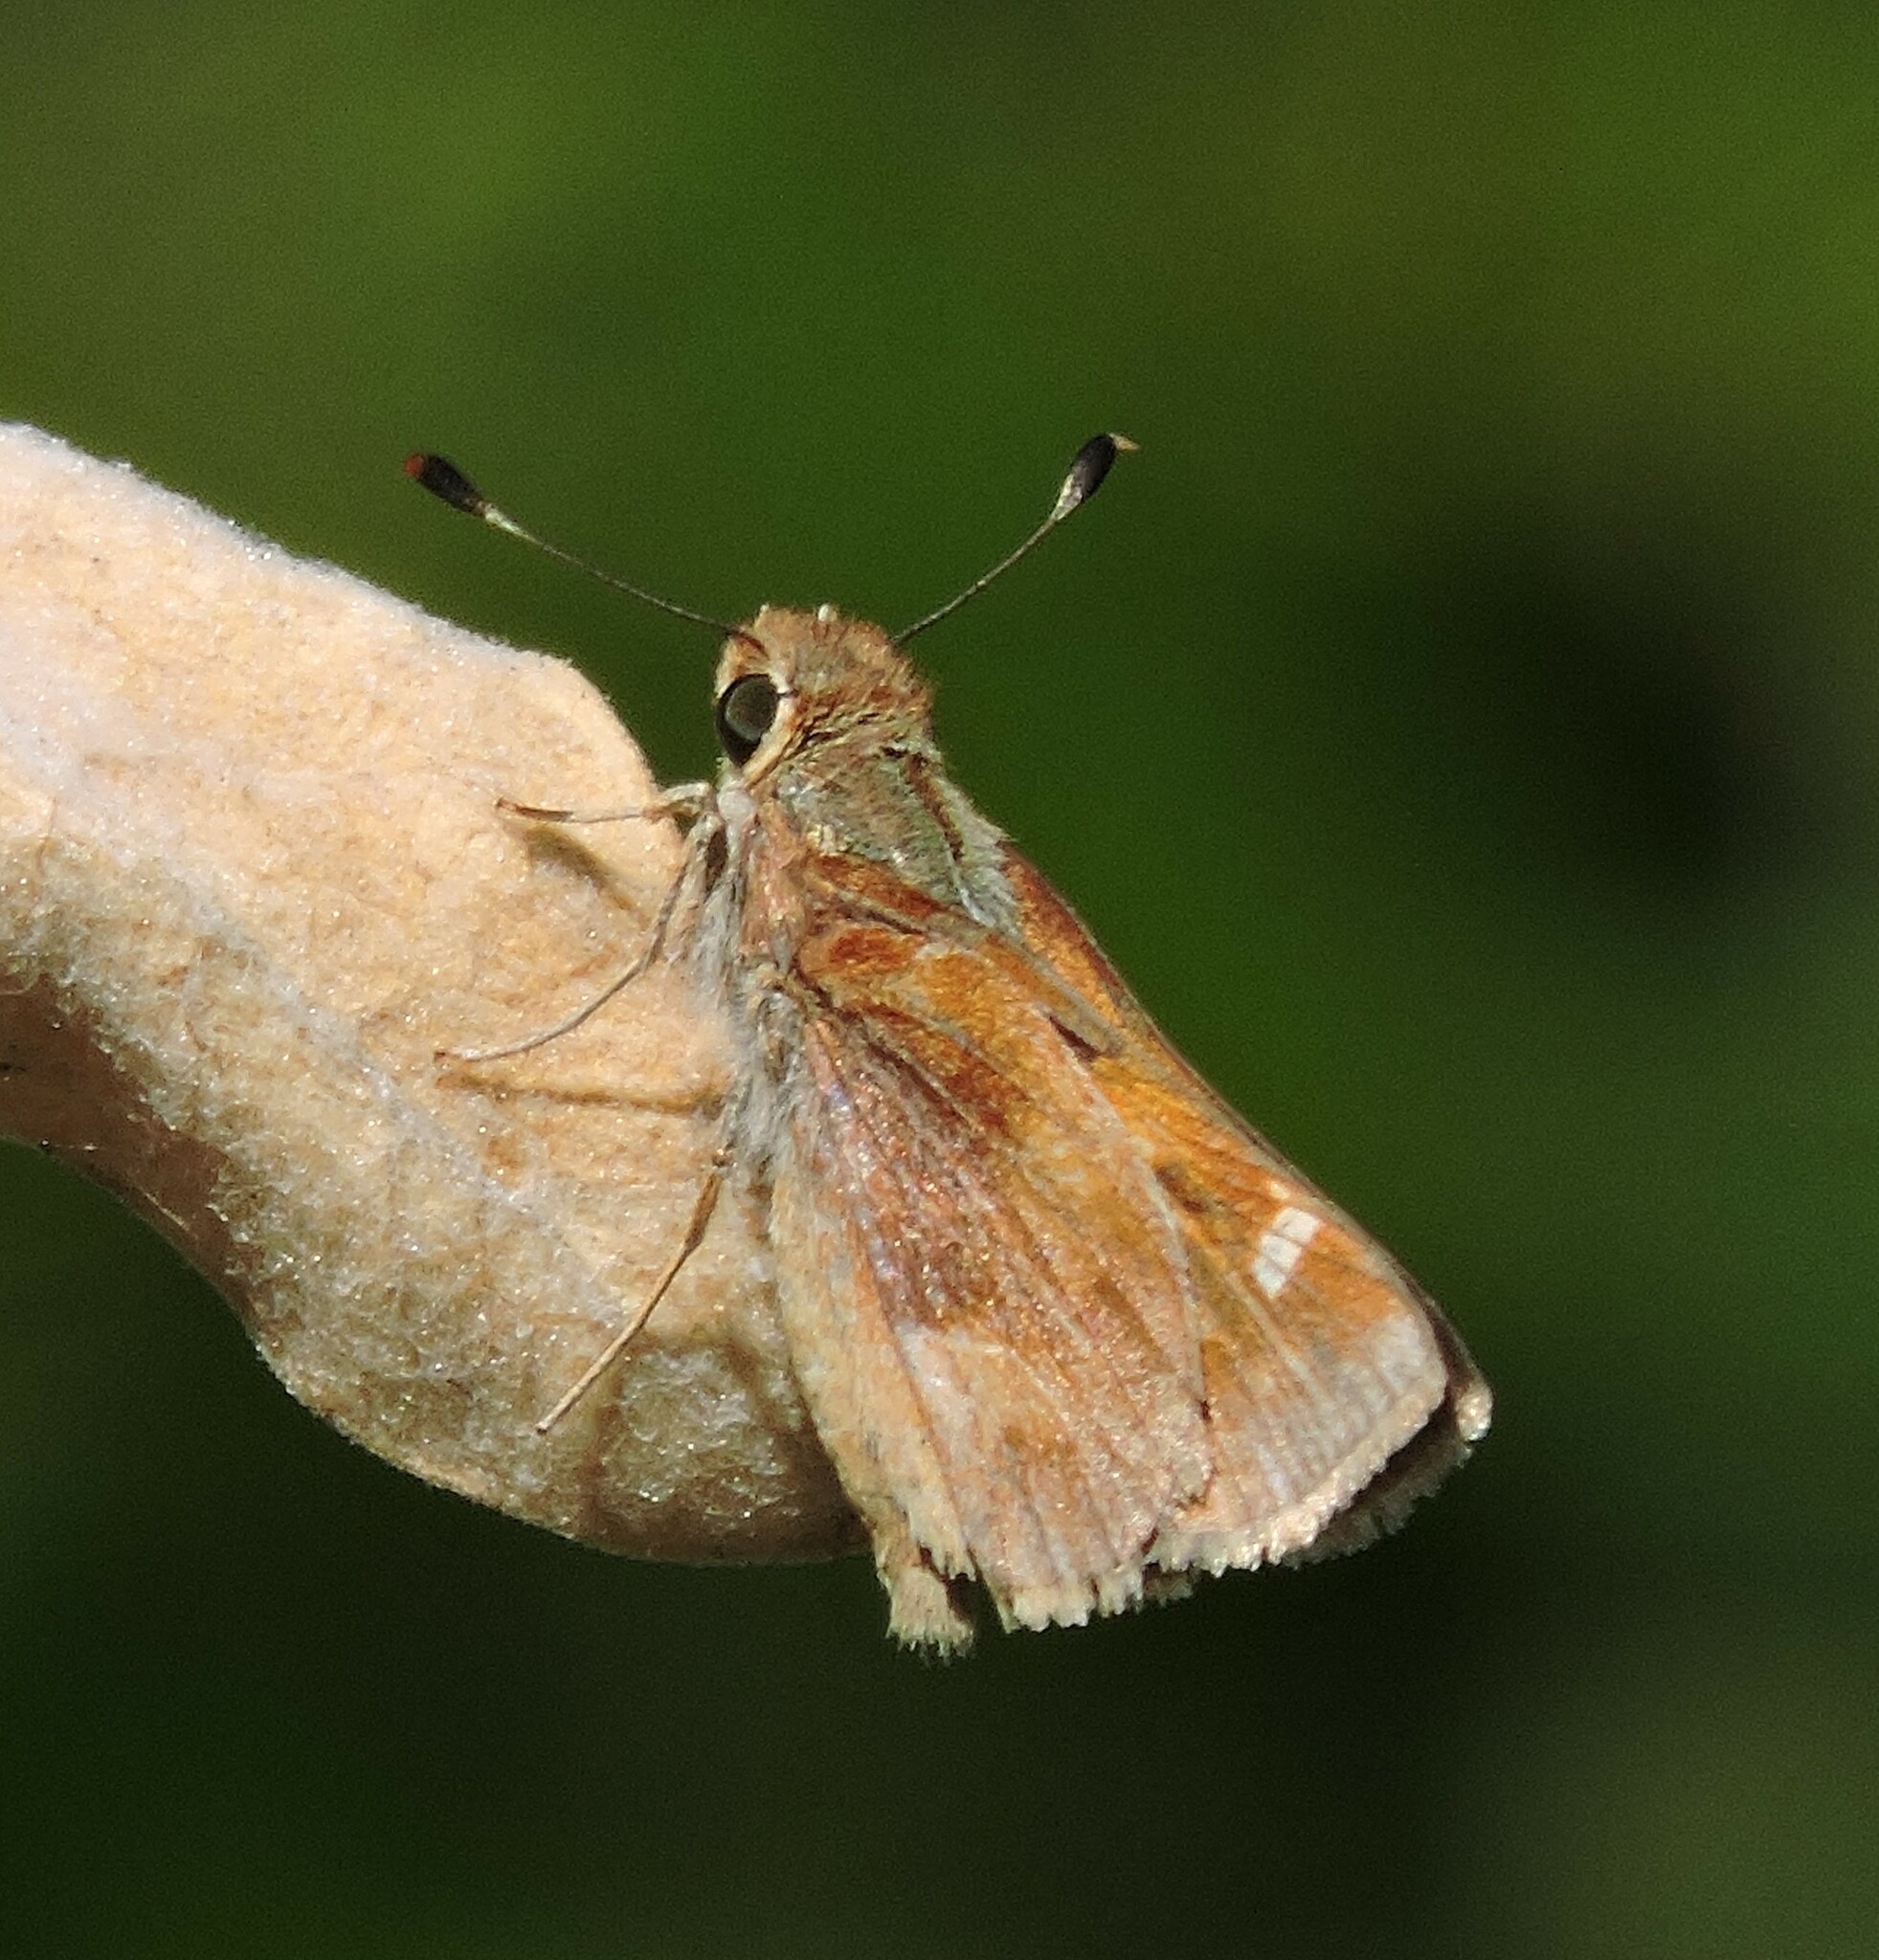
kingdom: Animalia
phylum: Arthropoda
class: Insecta
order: Lepidoptera
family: Hesperiidae
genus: Lon
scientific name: Lon melane
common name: Umber skipper
